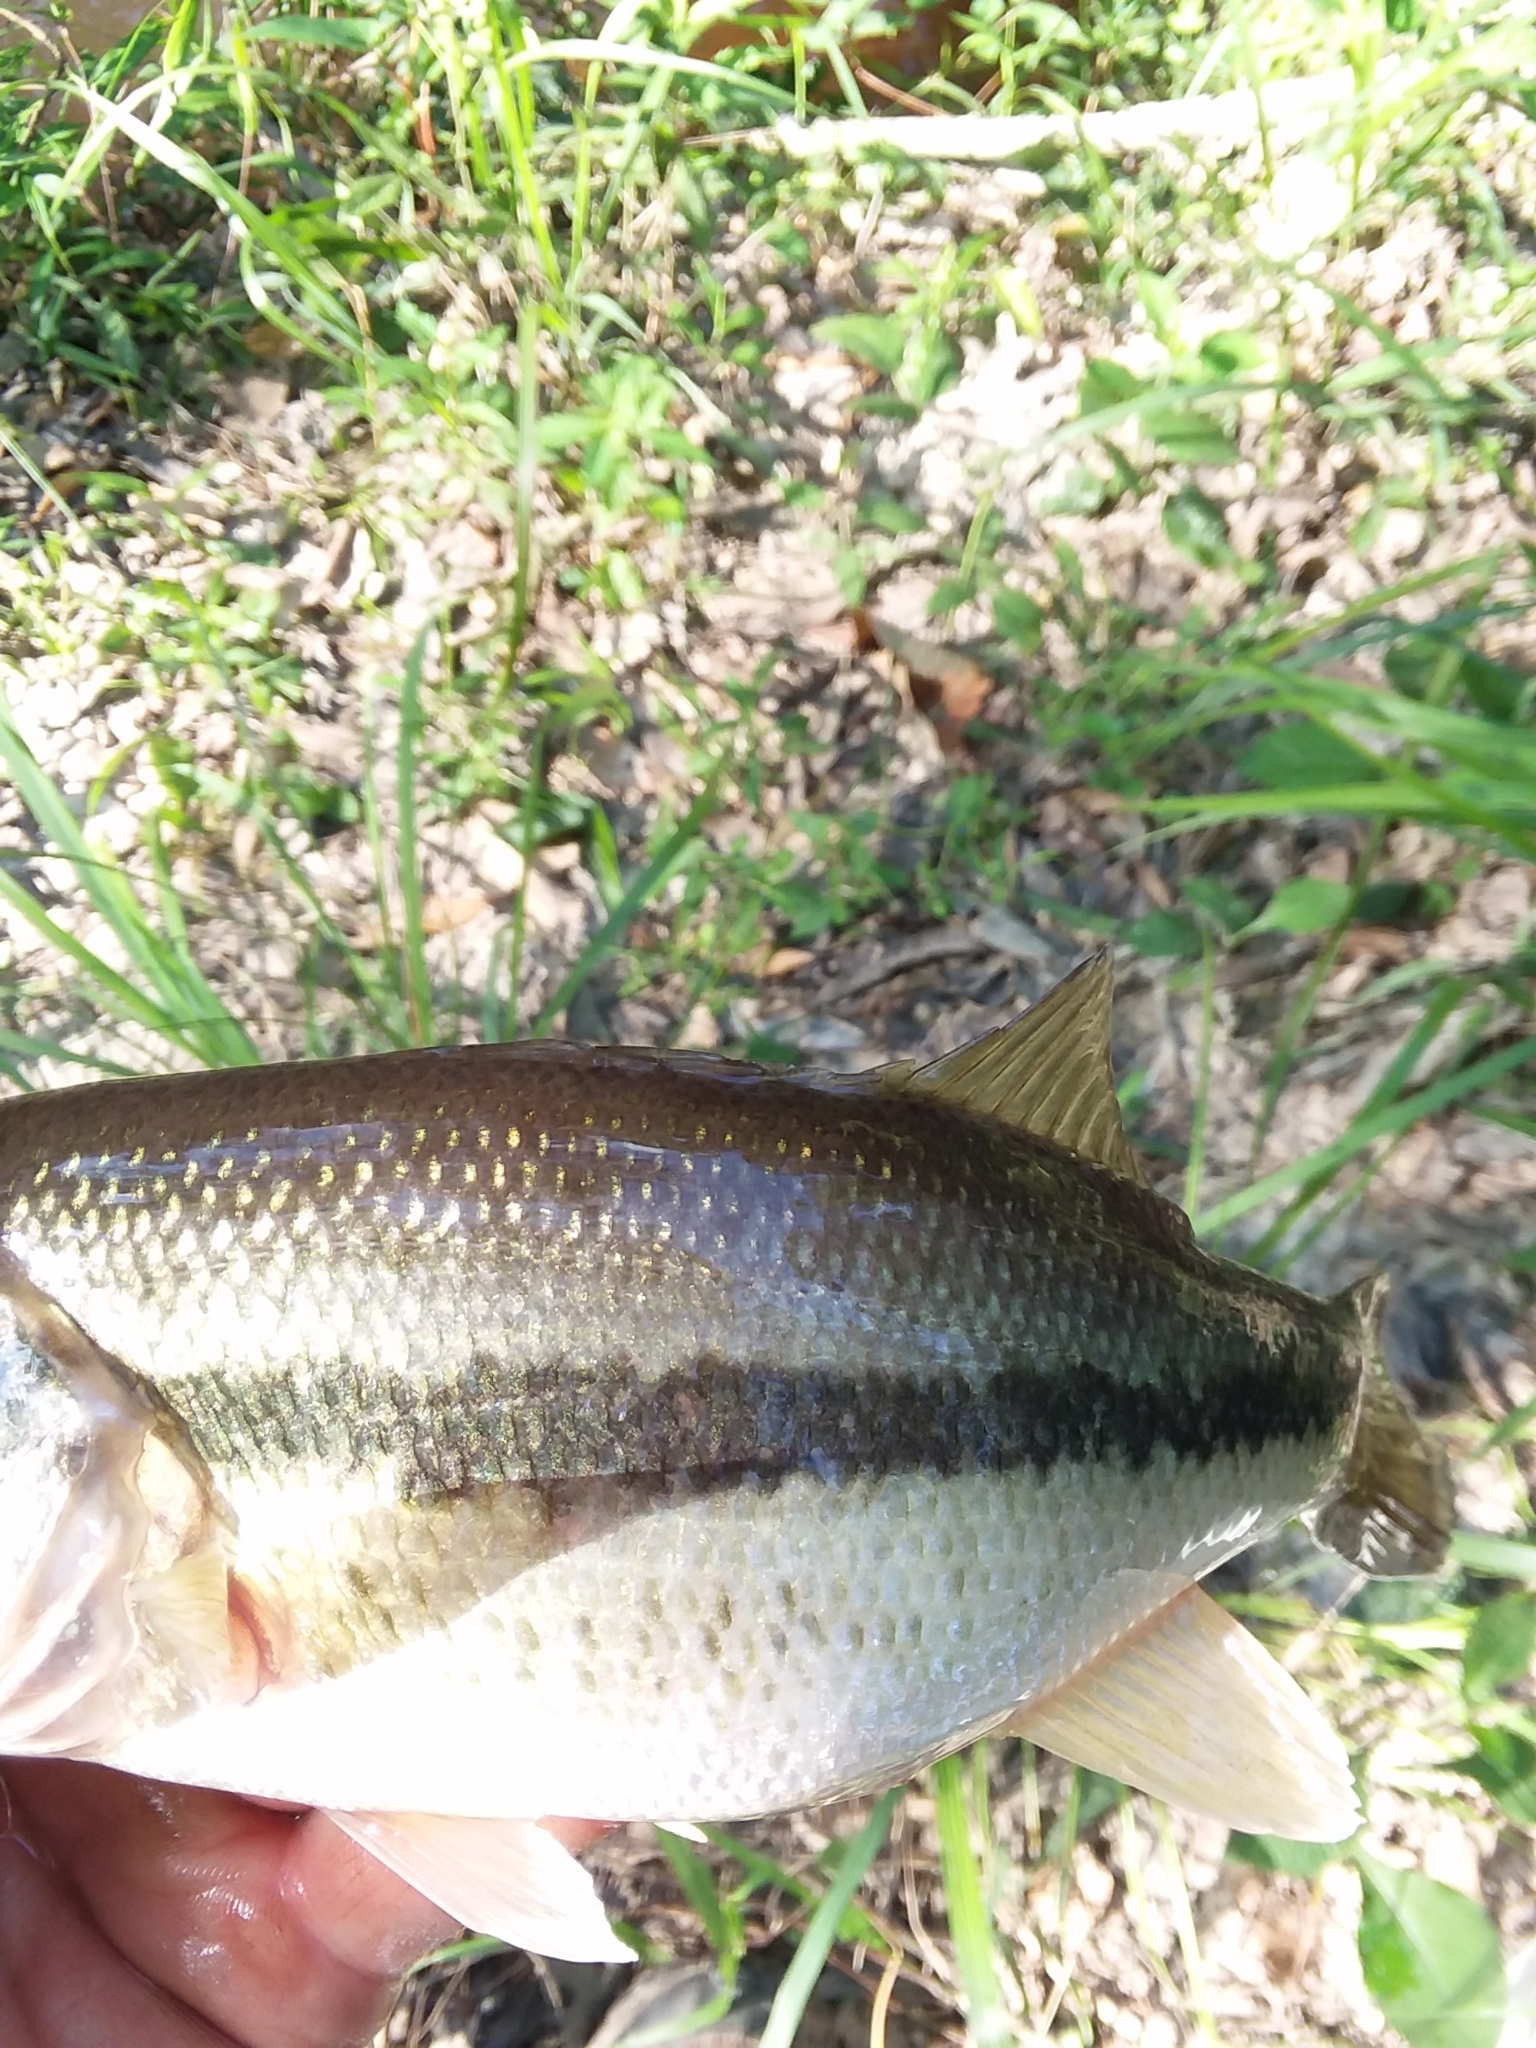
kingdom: Animalia
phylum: Chordata
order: Perciformes
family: Centrarchidae
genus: Micropterus
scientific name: Micropterus
